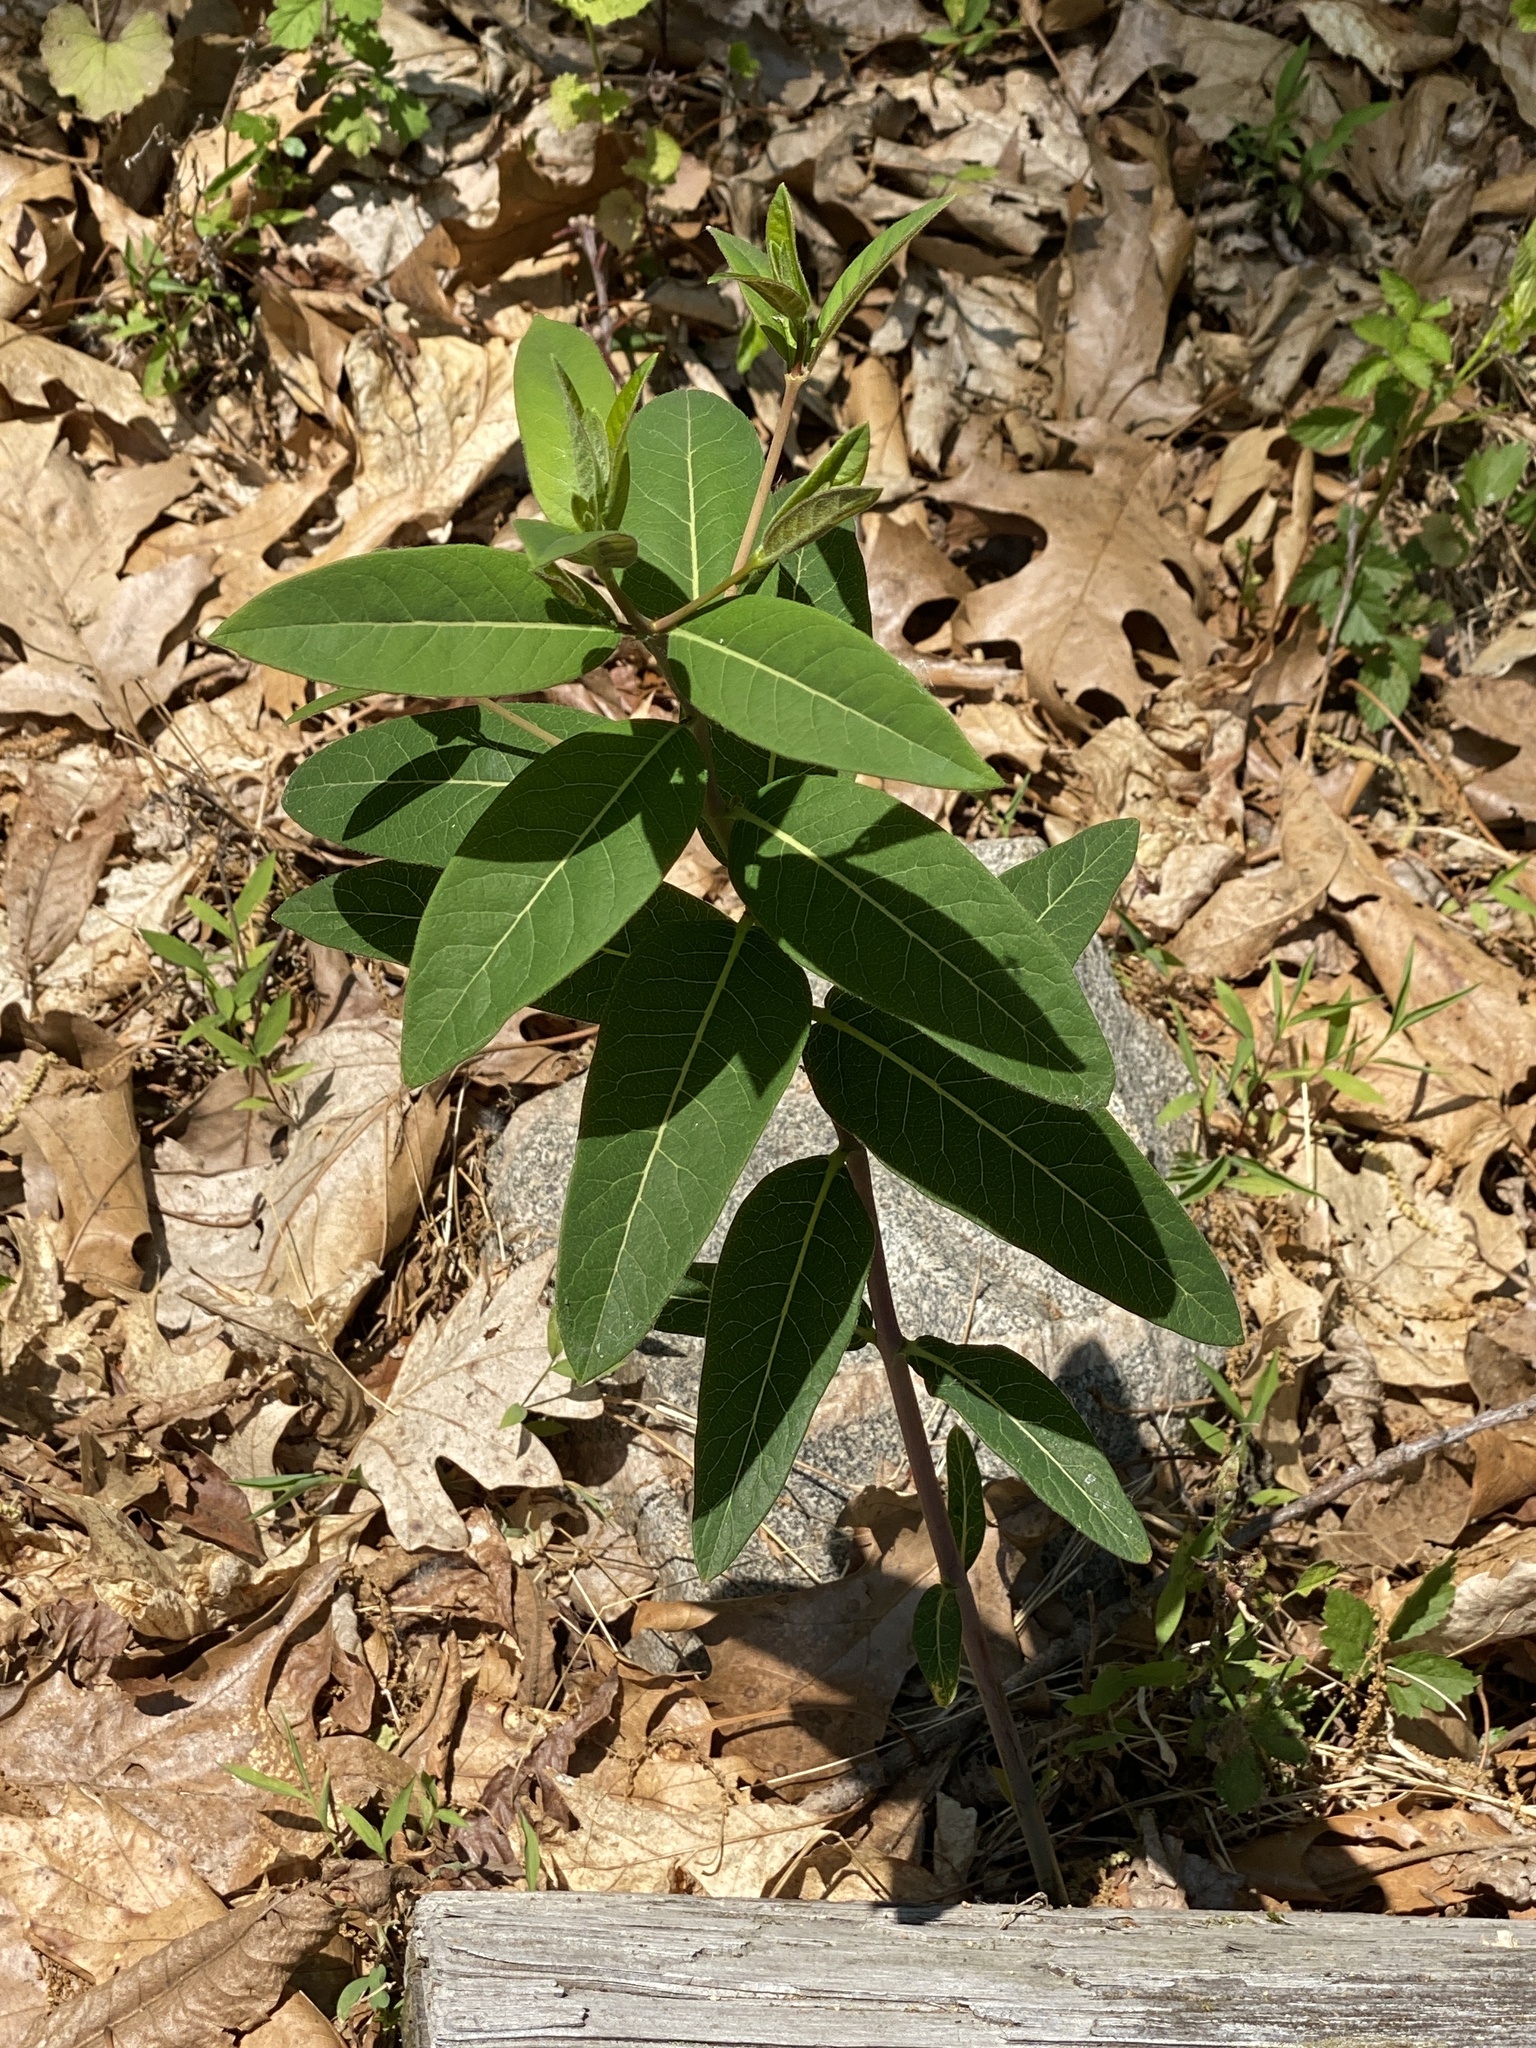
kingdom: Plantae
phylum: Tracheophyta
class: Magnoliopsida
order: Gentianales
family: Apocynaceae
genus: Apocynum
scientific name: Apocynum cannabinum
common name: Hemp dogbane
